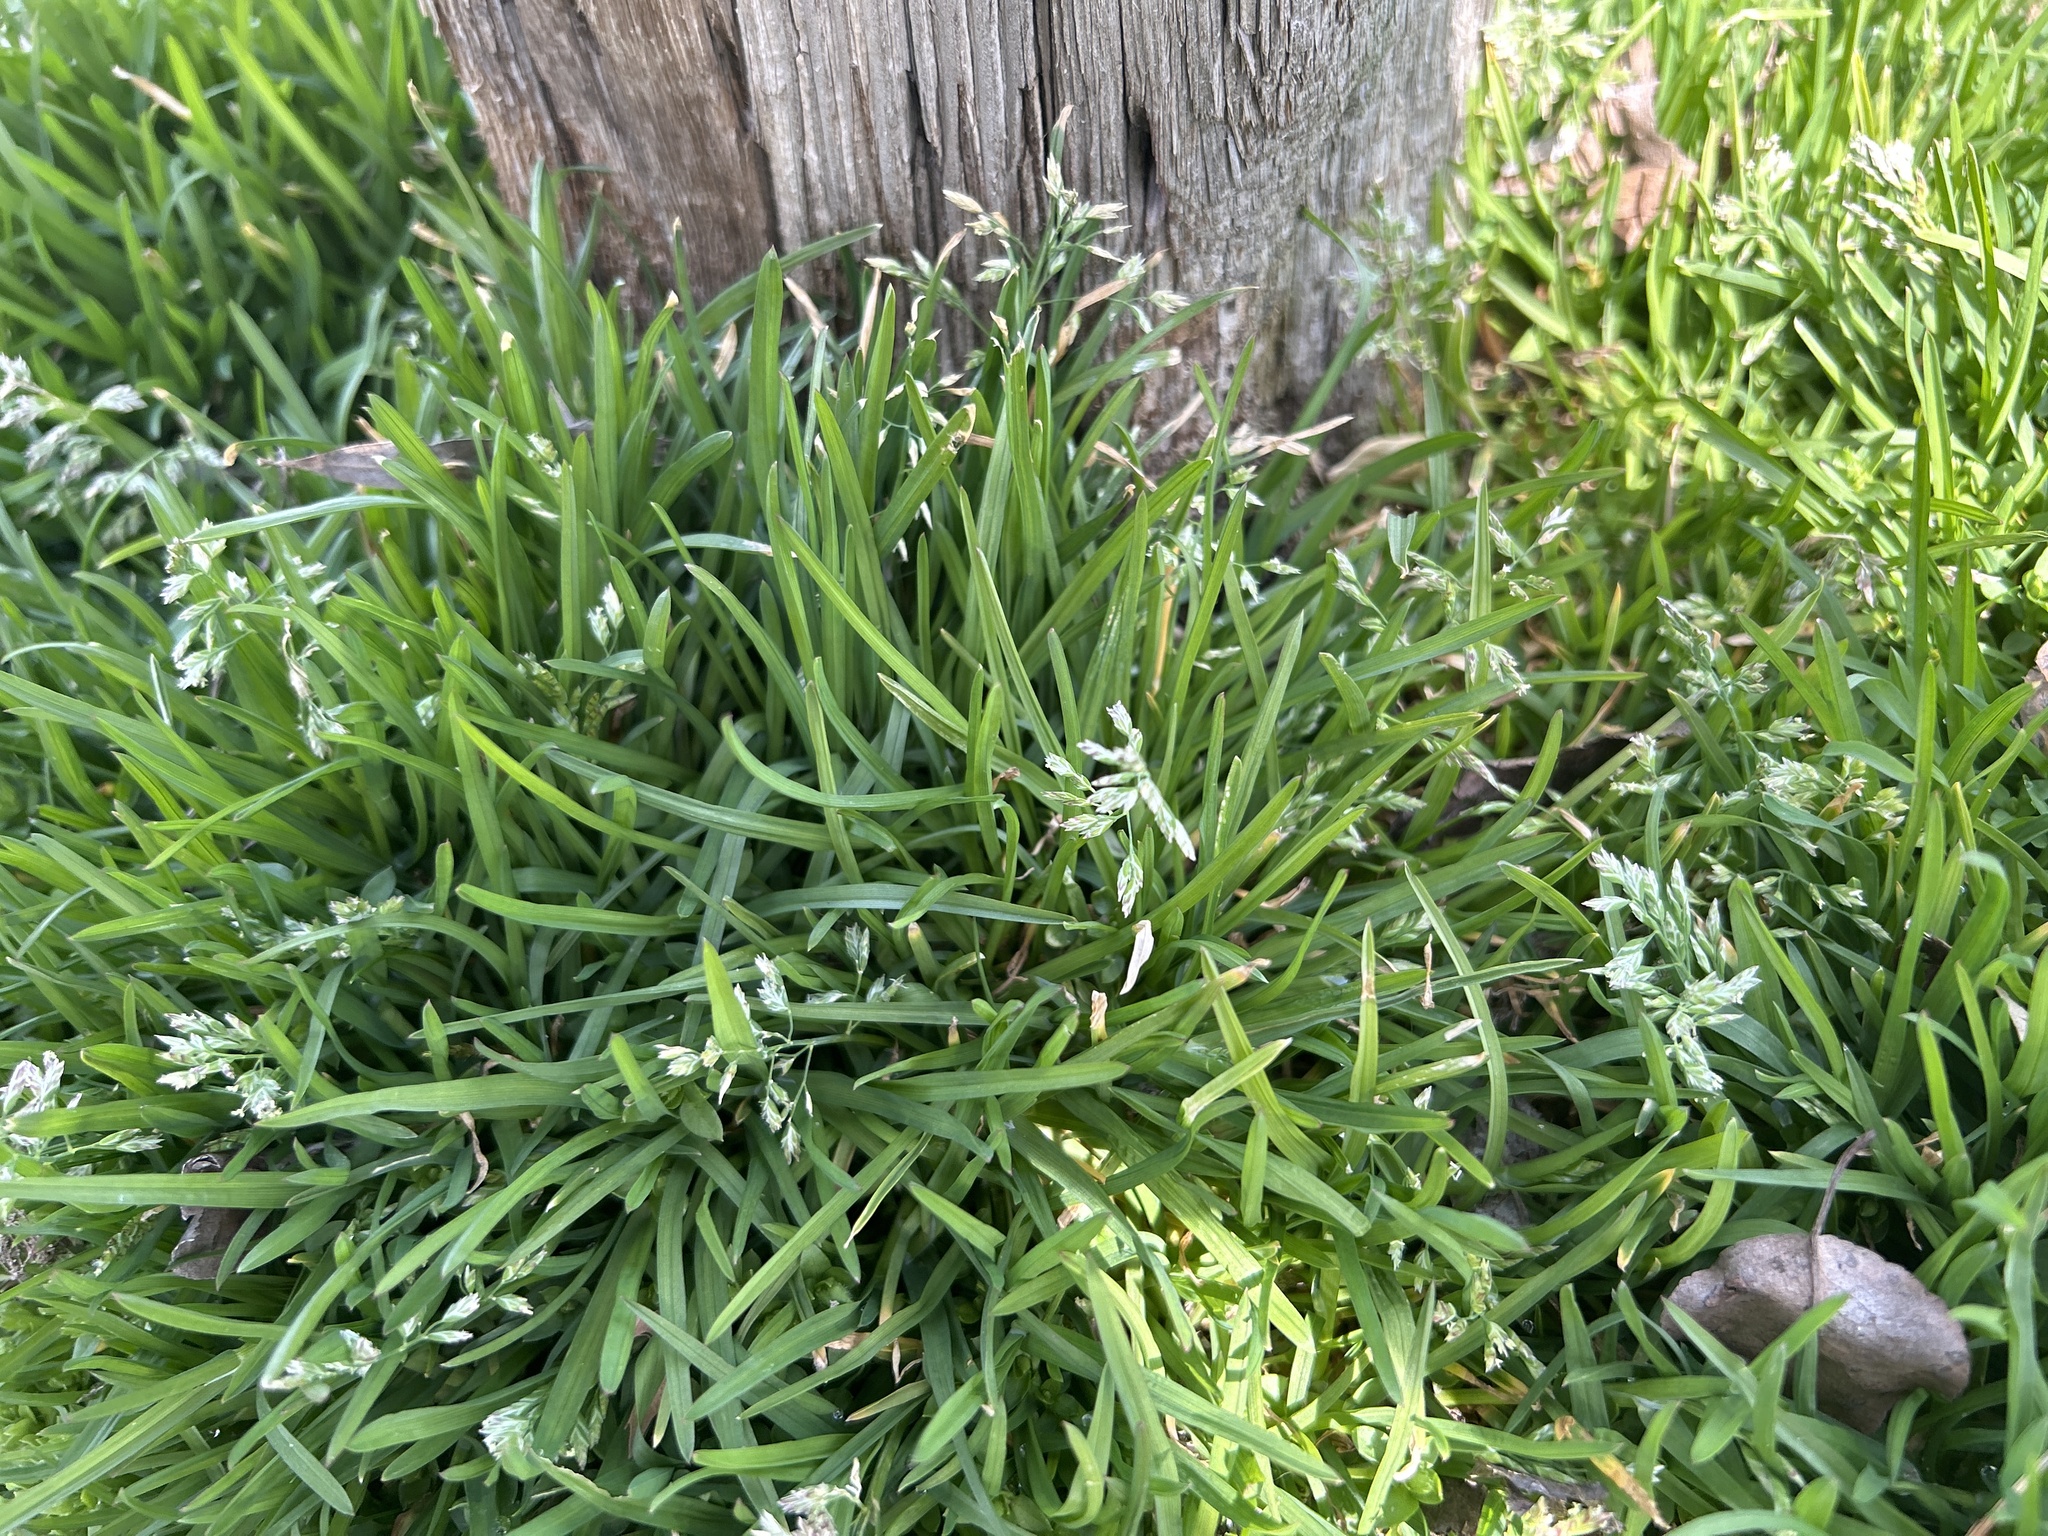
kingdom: Plantae
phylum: Tracheophyta
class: Liliopsida
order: Poales
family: Poaceae
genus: Poa
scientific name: Poa annua
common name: Annual bluegrass
